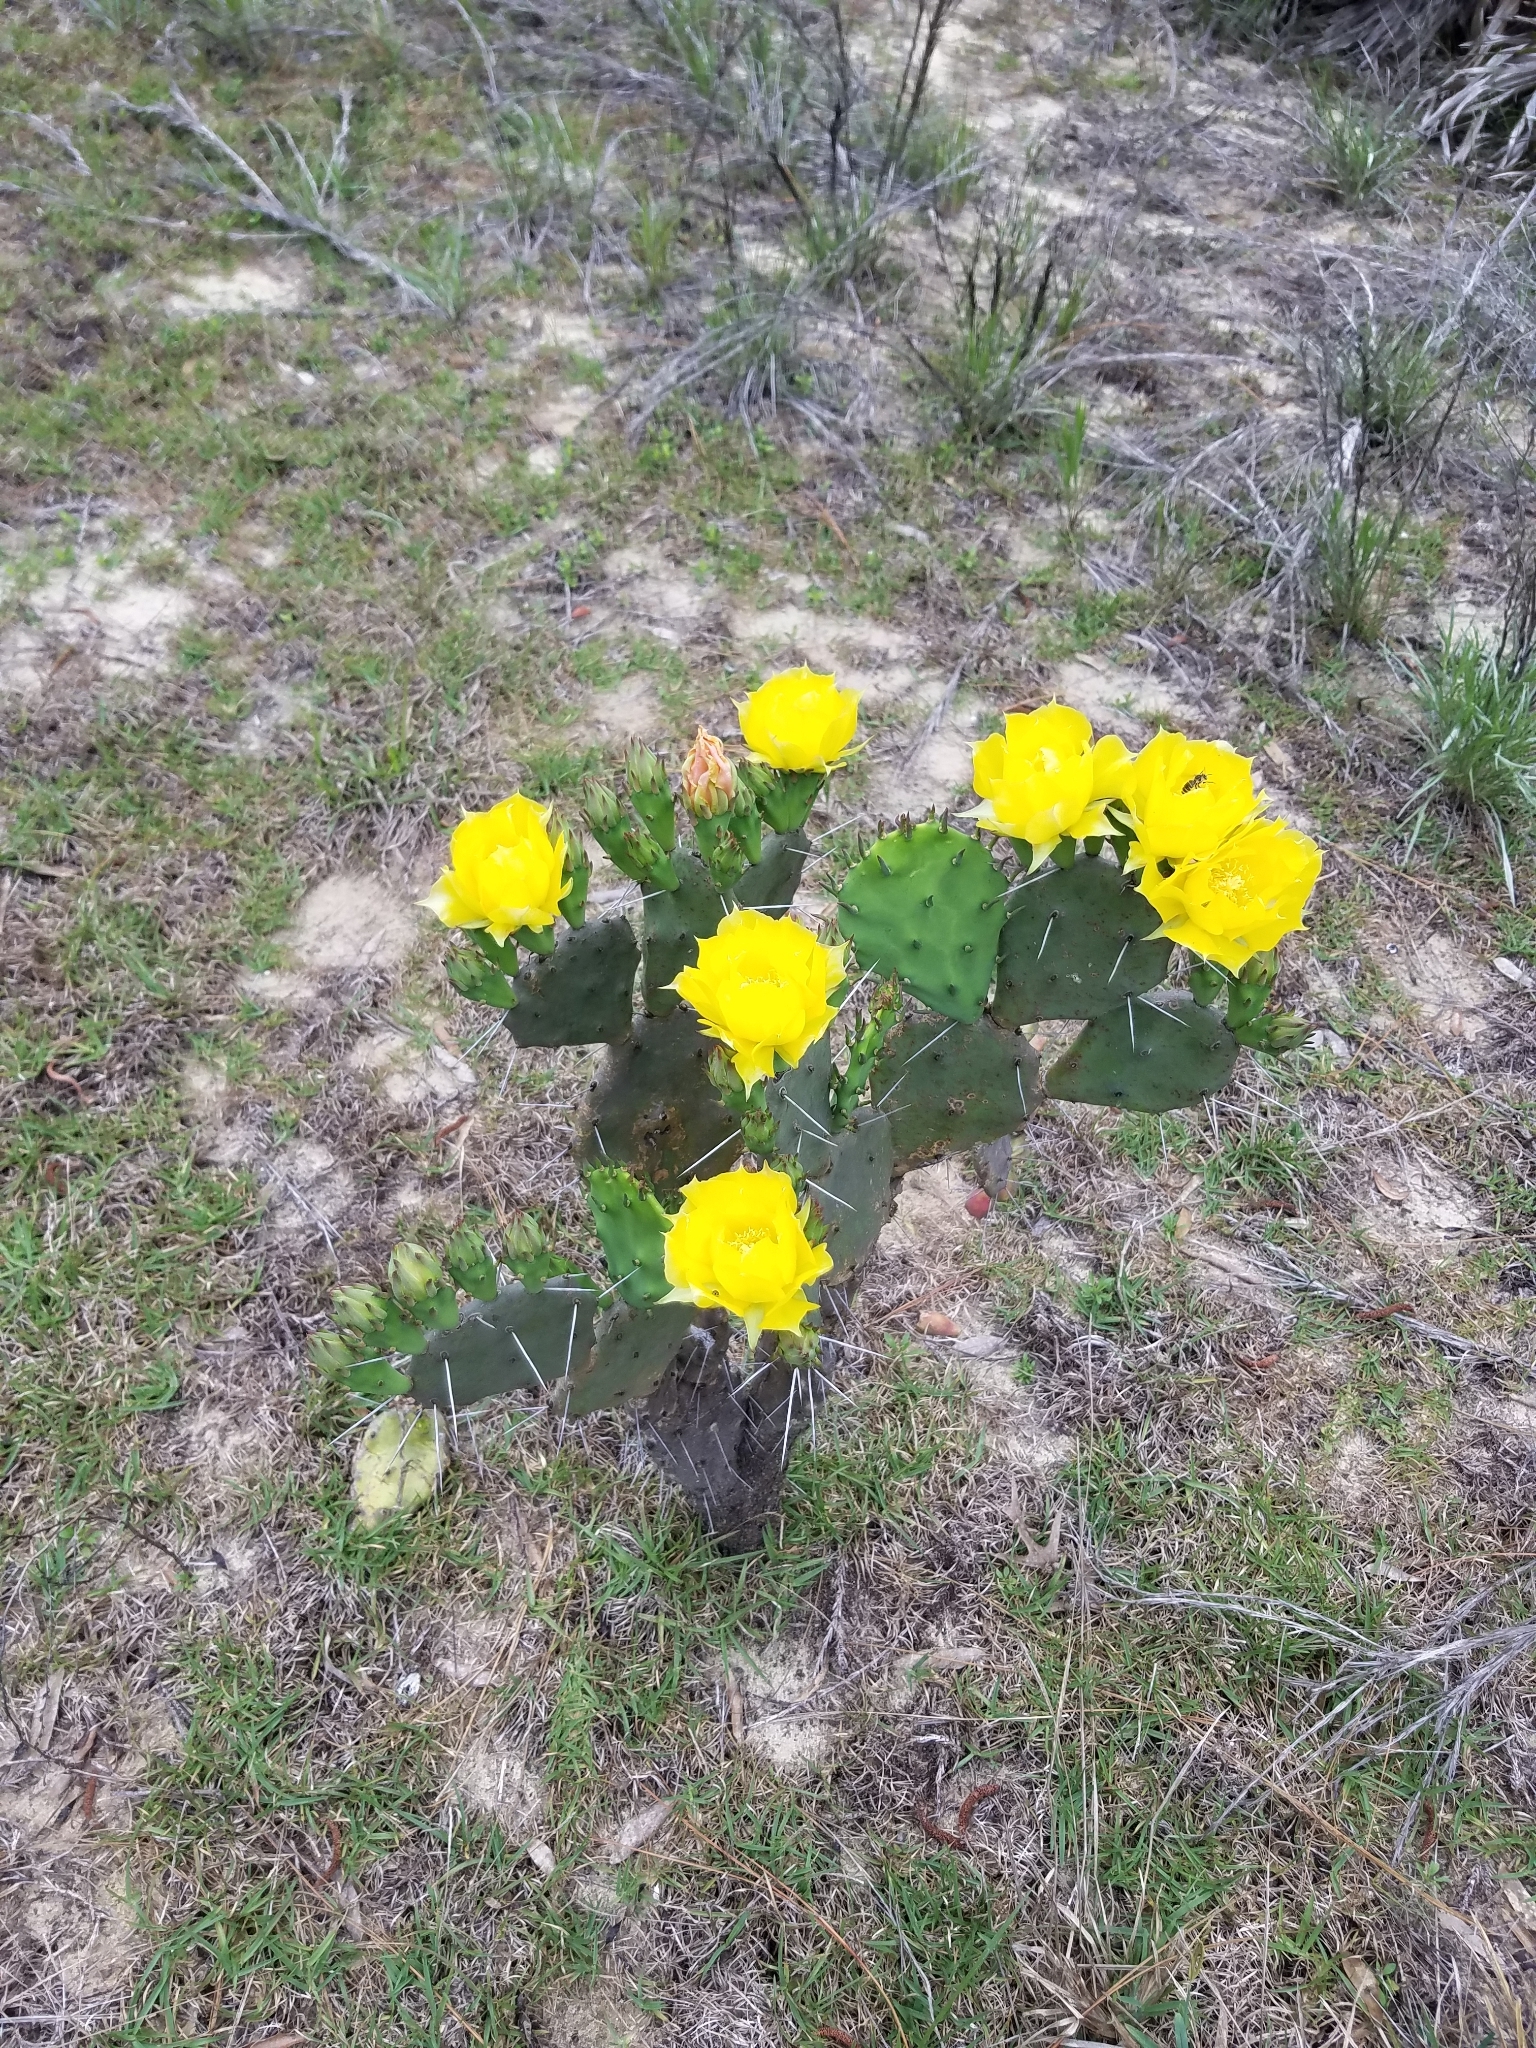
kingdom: Plantae
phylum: Tracheophyta
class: Magnoliopsida
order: Caryophyllales
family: Cactaceae
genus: Opuntia
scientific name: Opuntia austrina
